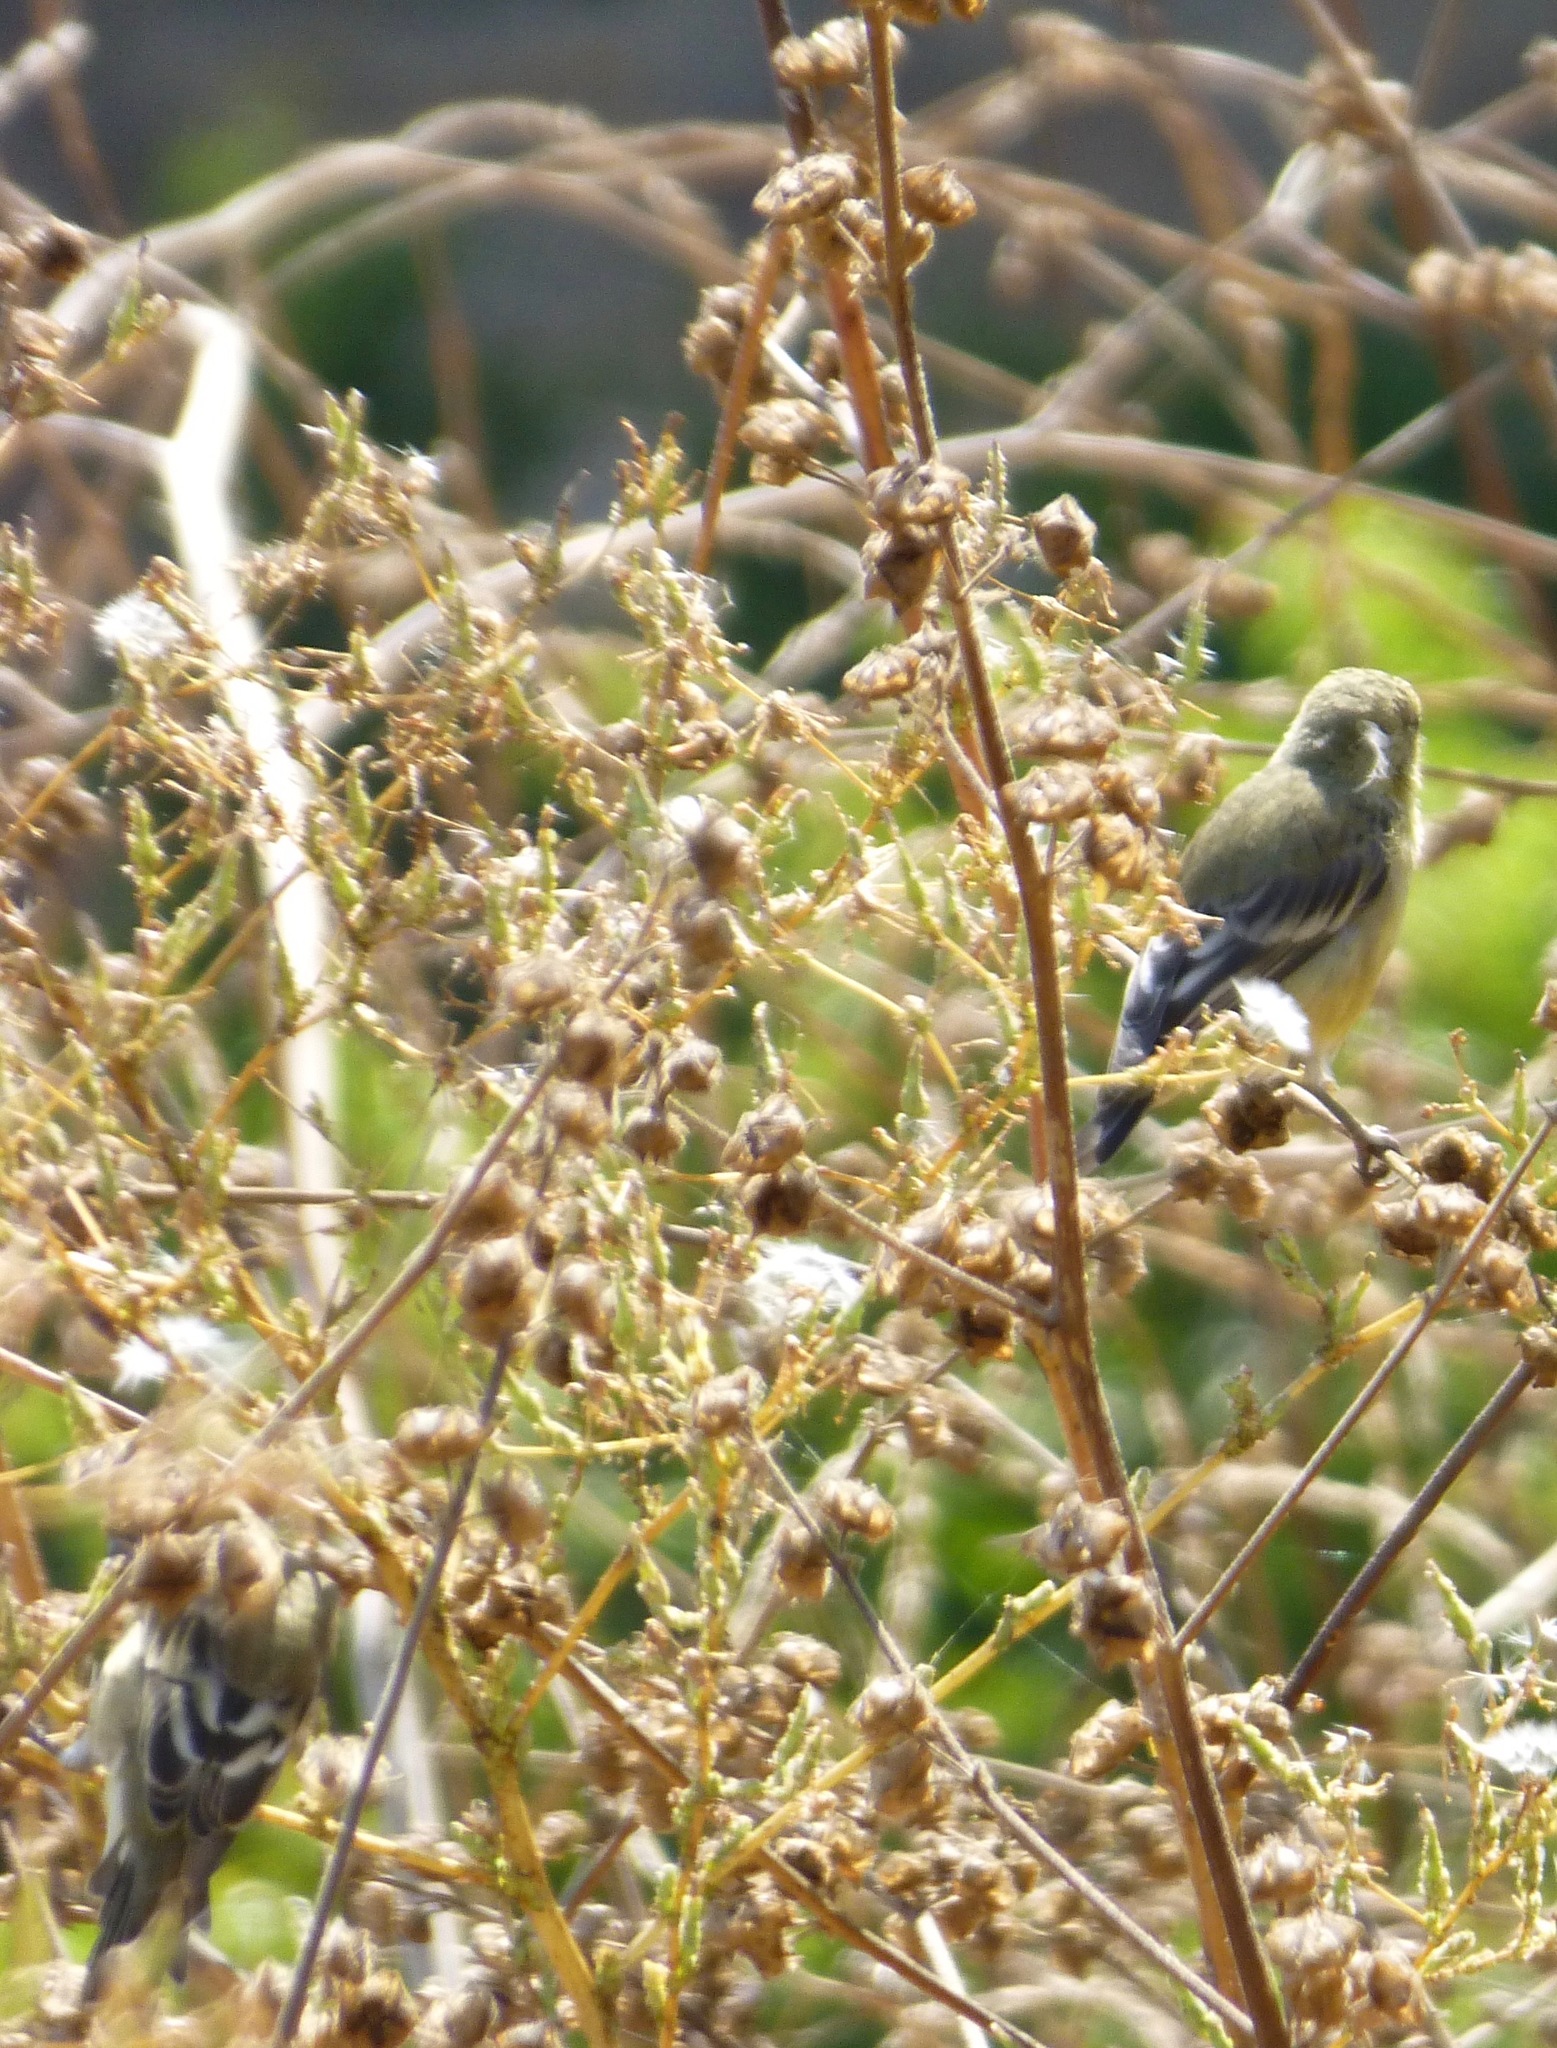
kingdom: Animalia
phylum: Chordata
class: Aves
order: Passeriformes
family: Fringillidae
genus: Spinus
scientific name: Spinus psaltria
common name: Lesser goldfinch
